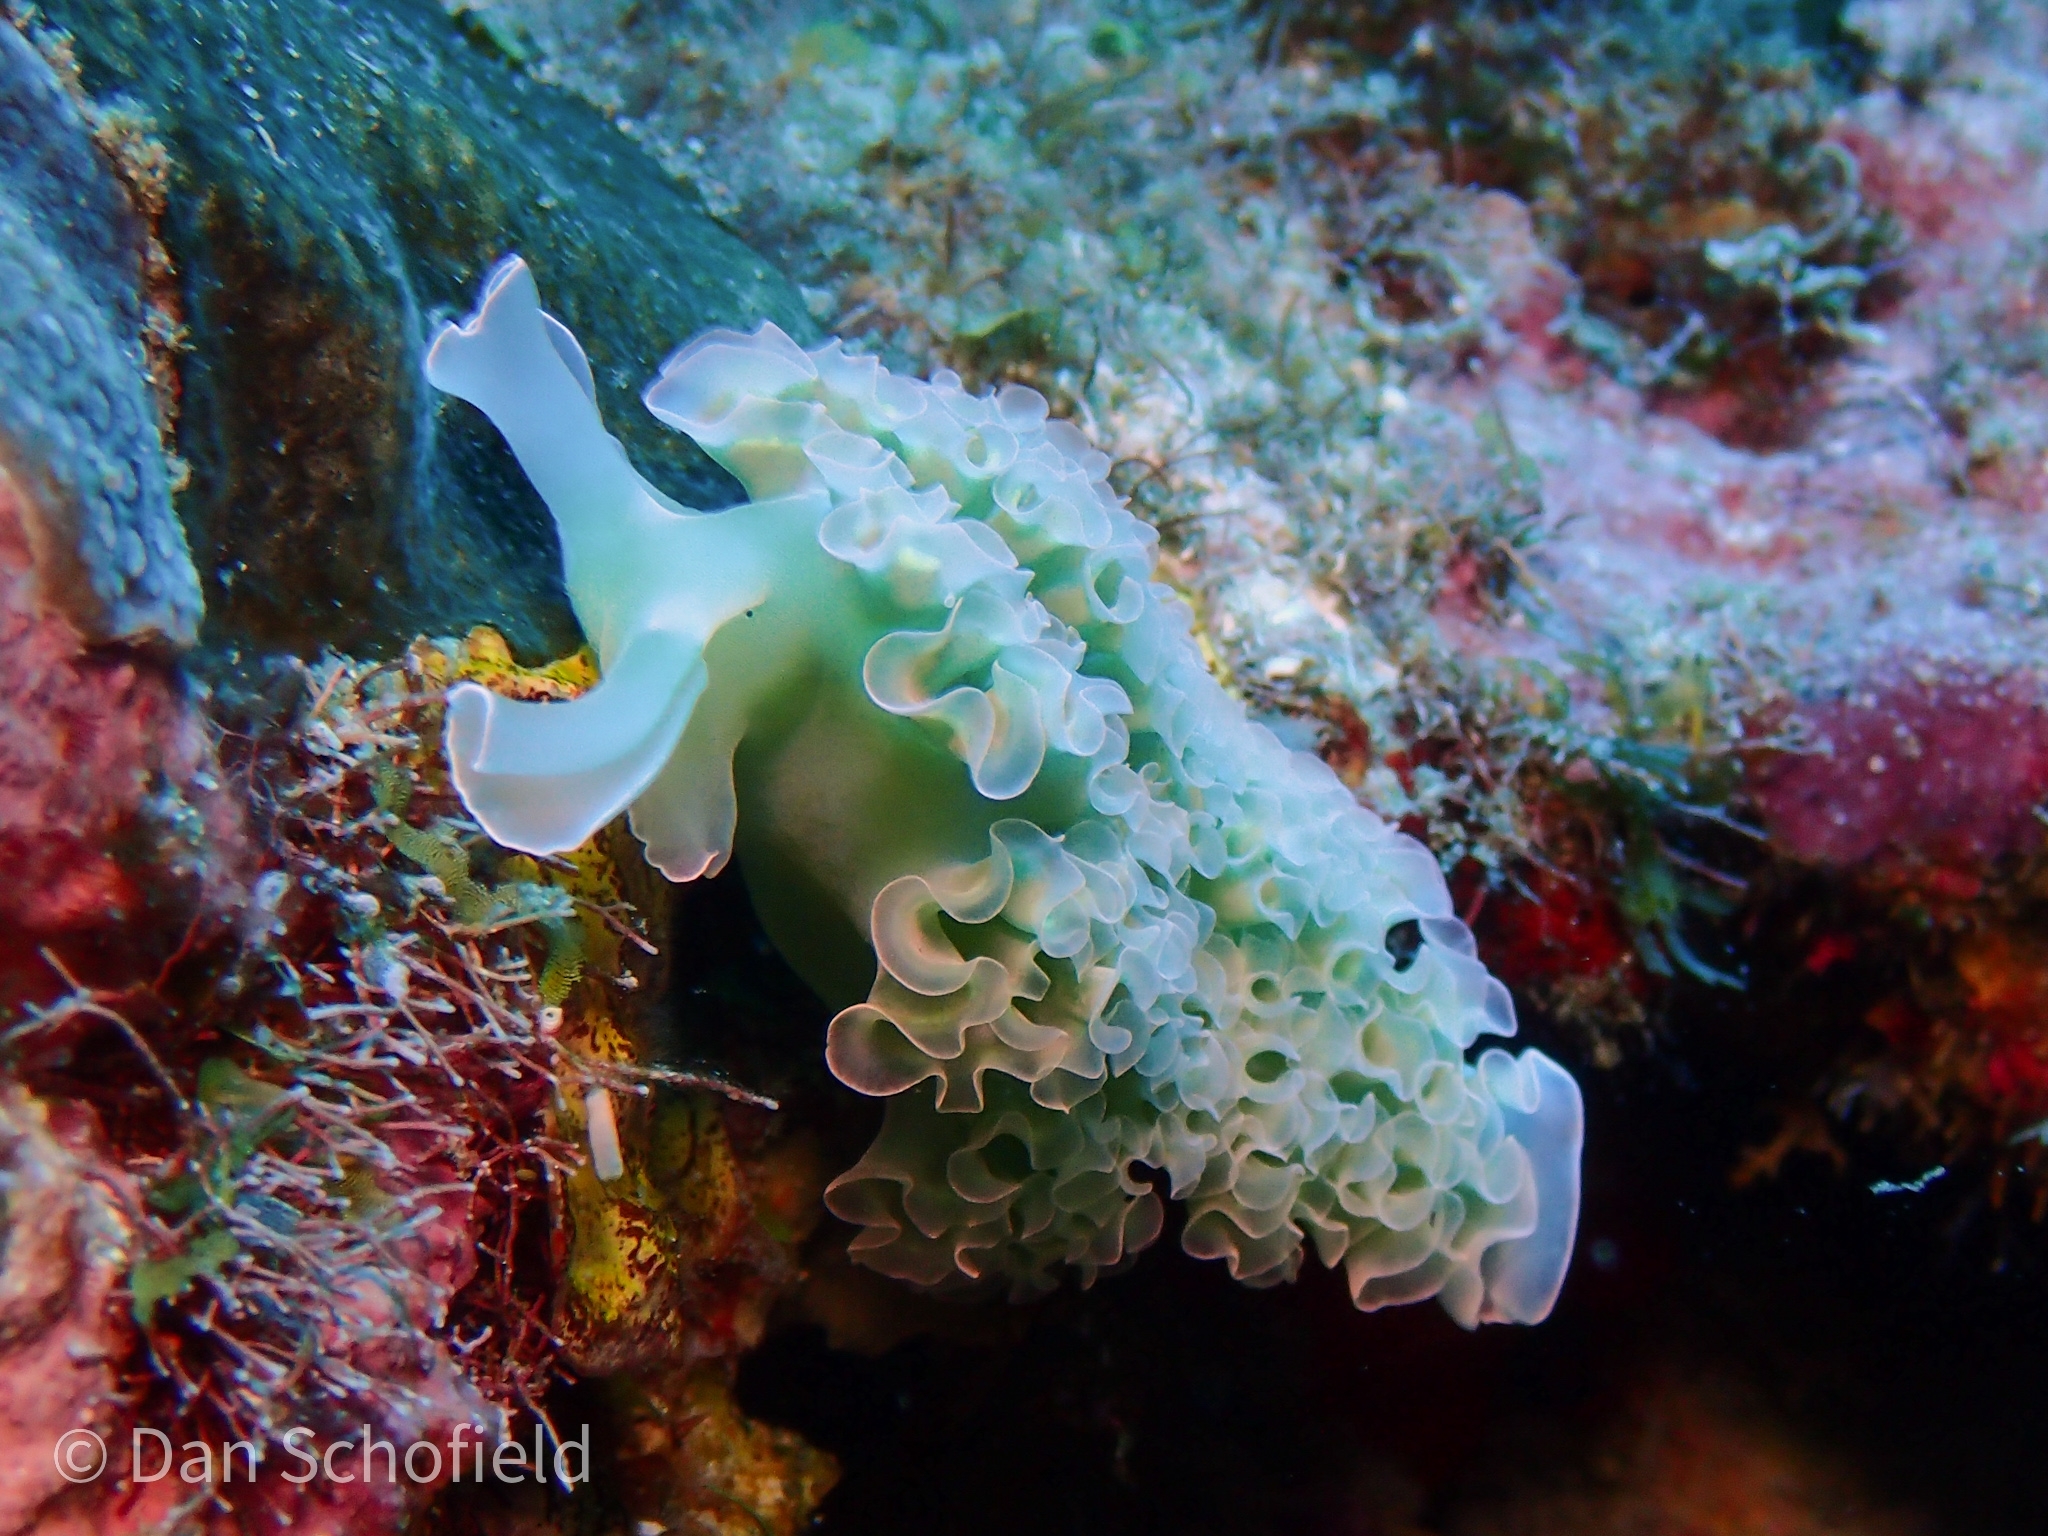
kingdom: Animalia
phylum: Mollusca
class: Gastropoda
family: Plakobranchidae
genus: Elysia
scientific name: Elysia crispata
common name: Lettuce slug
